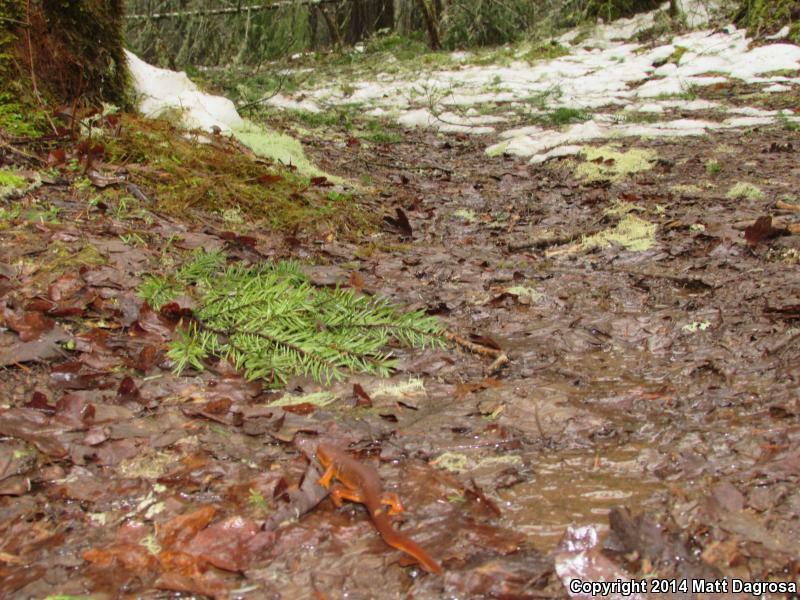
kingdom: Animalia
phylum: Chordata
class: Amphibia
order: Caudata
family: Salamandridae
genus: Taricha
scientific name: Taricha granulosa
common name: Roughskin newt
